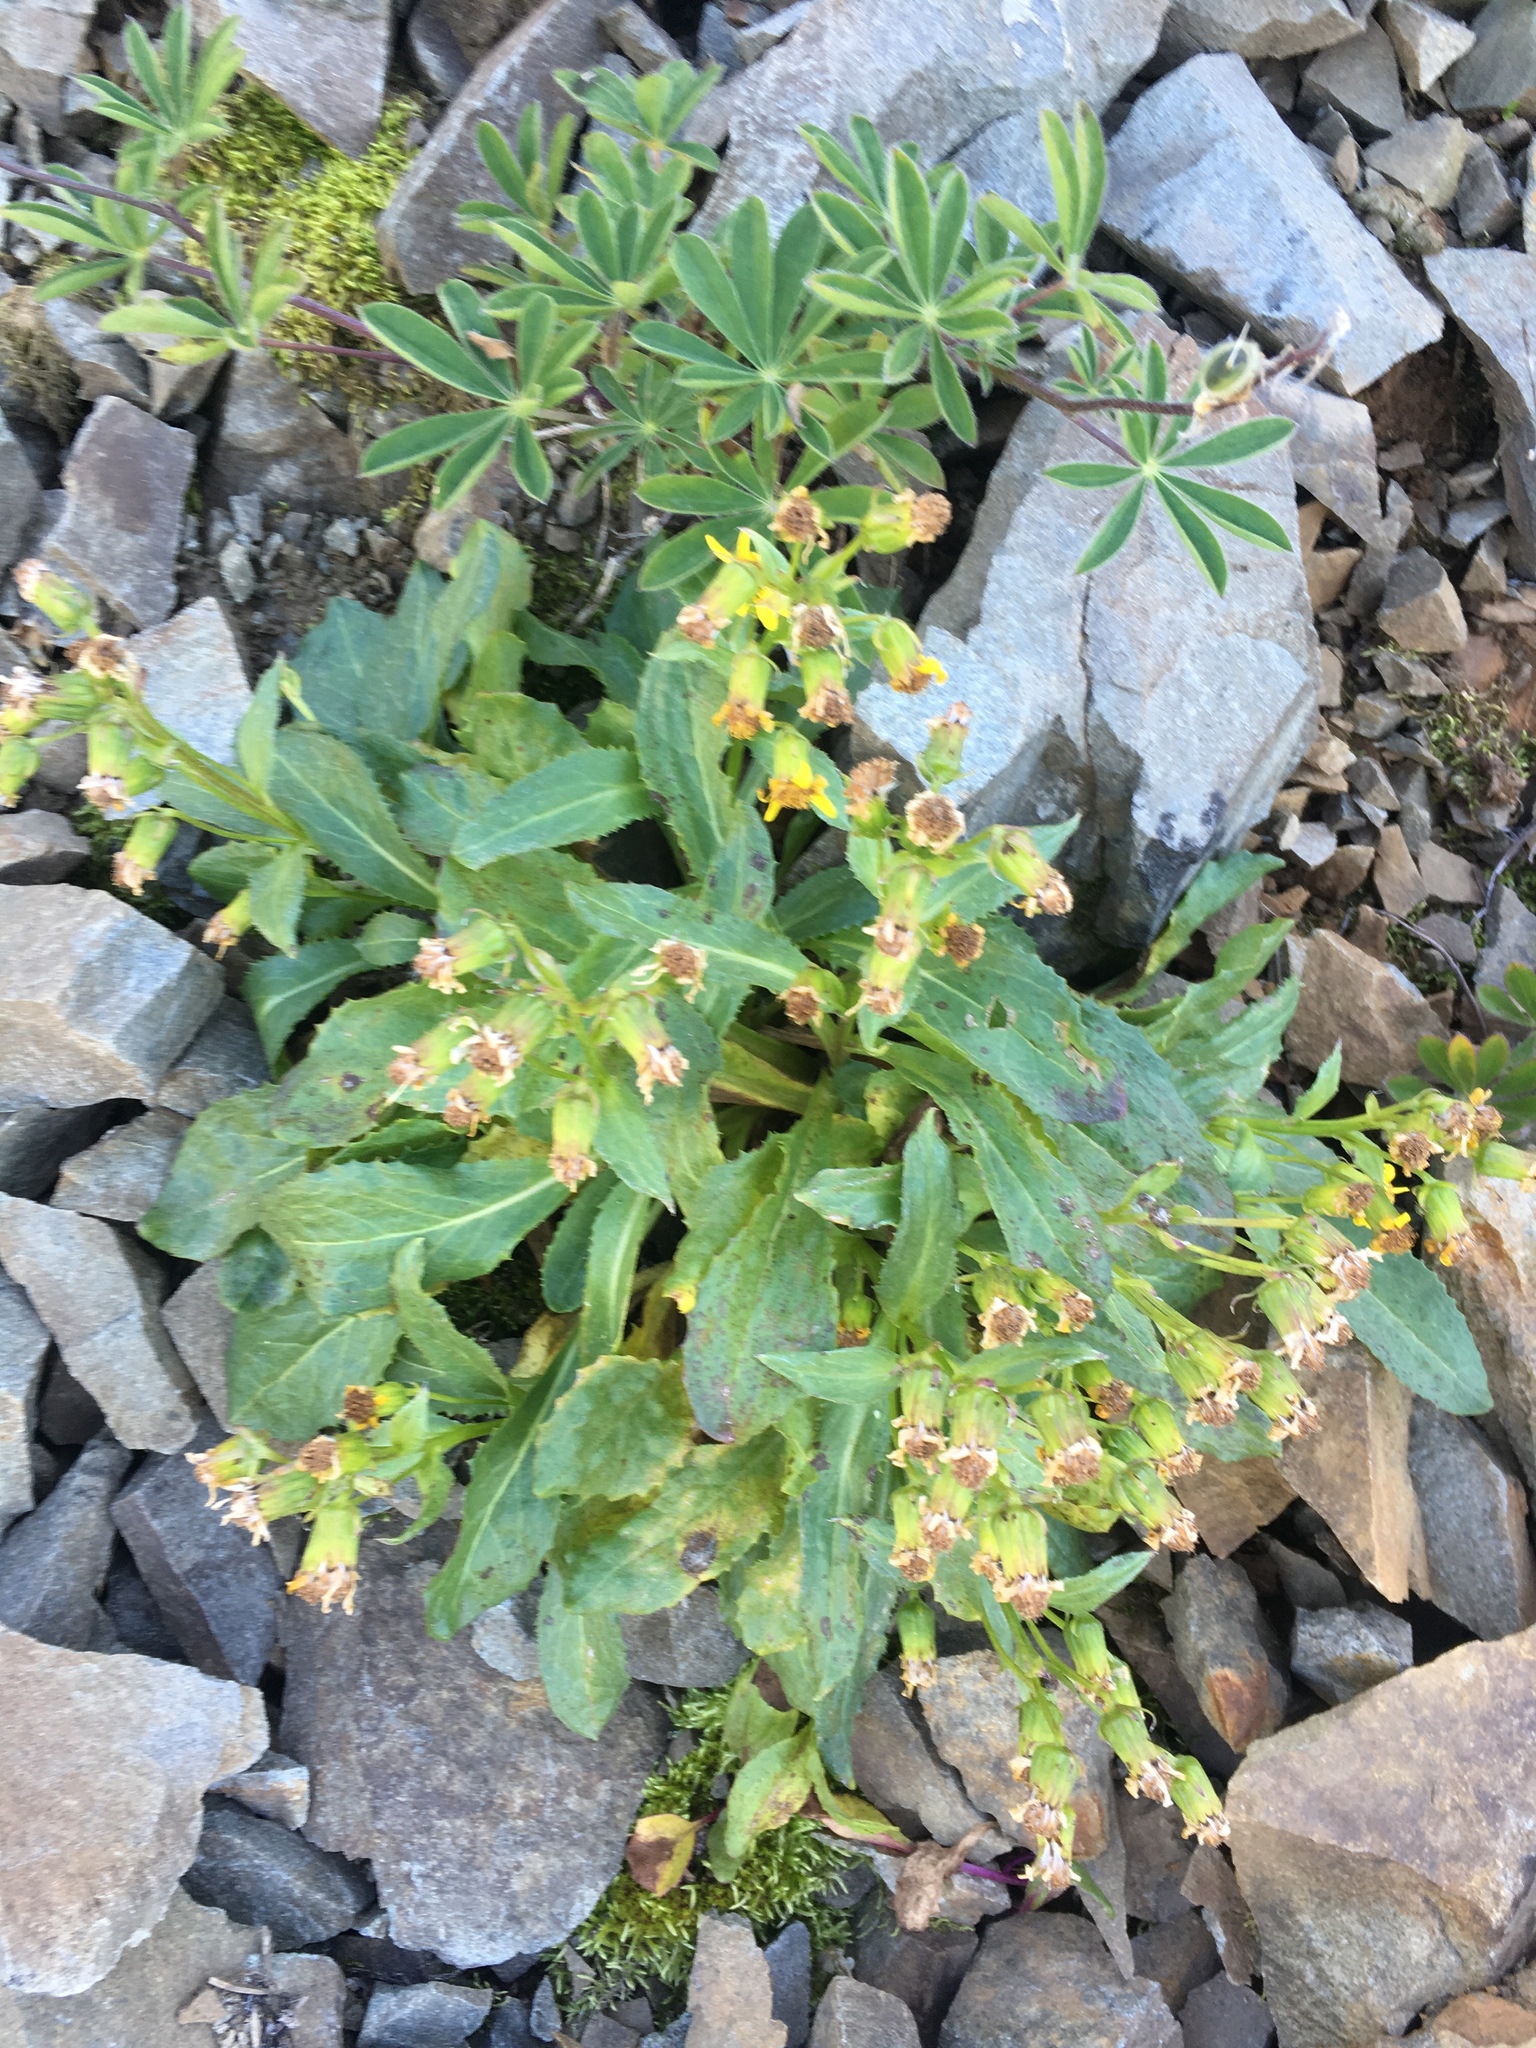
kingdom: Plantae
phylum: Tracheophyta
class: Magnoliopsida
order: Asterales
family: Asteraceae
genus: Senecio
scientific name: Senecio elmeri
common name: Elmer's butterweed
